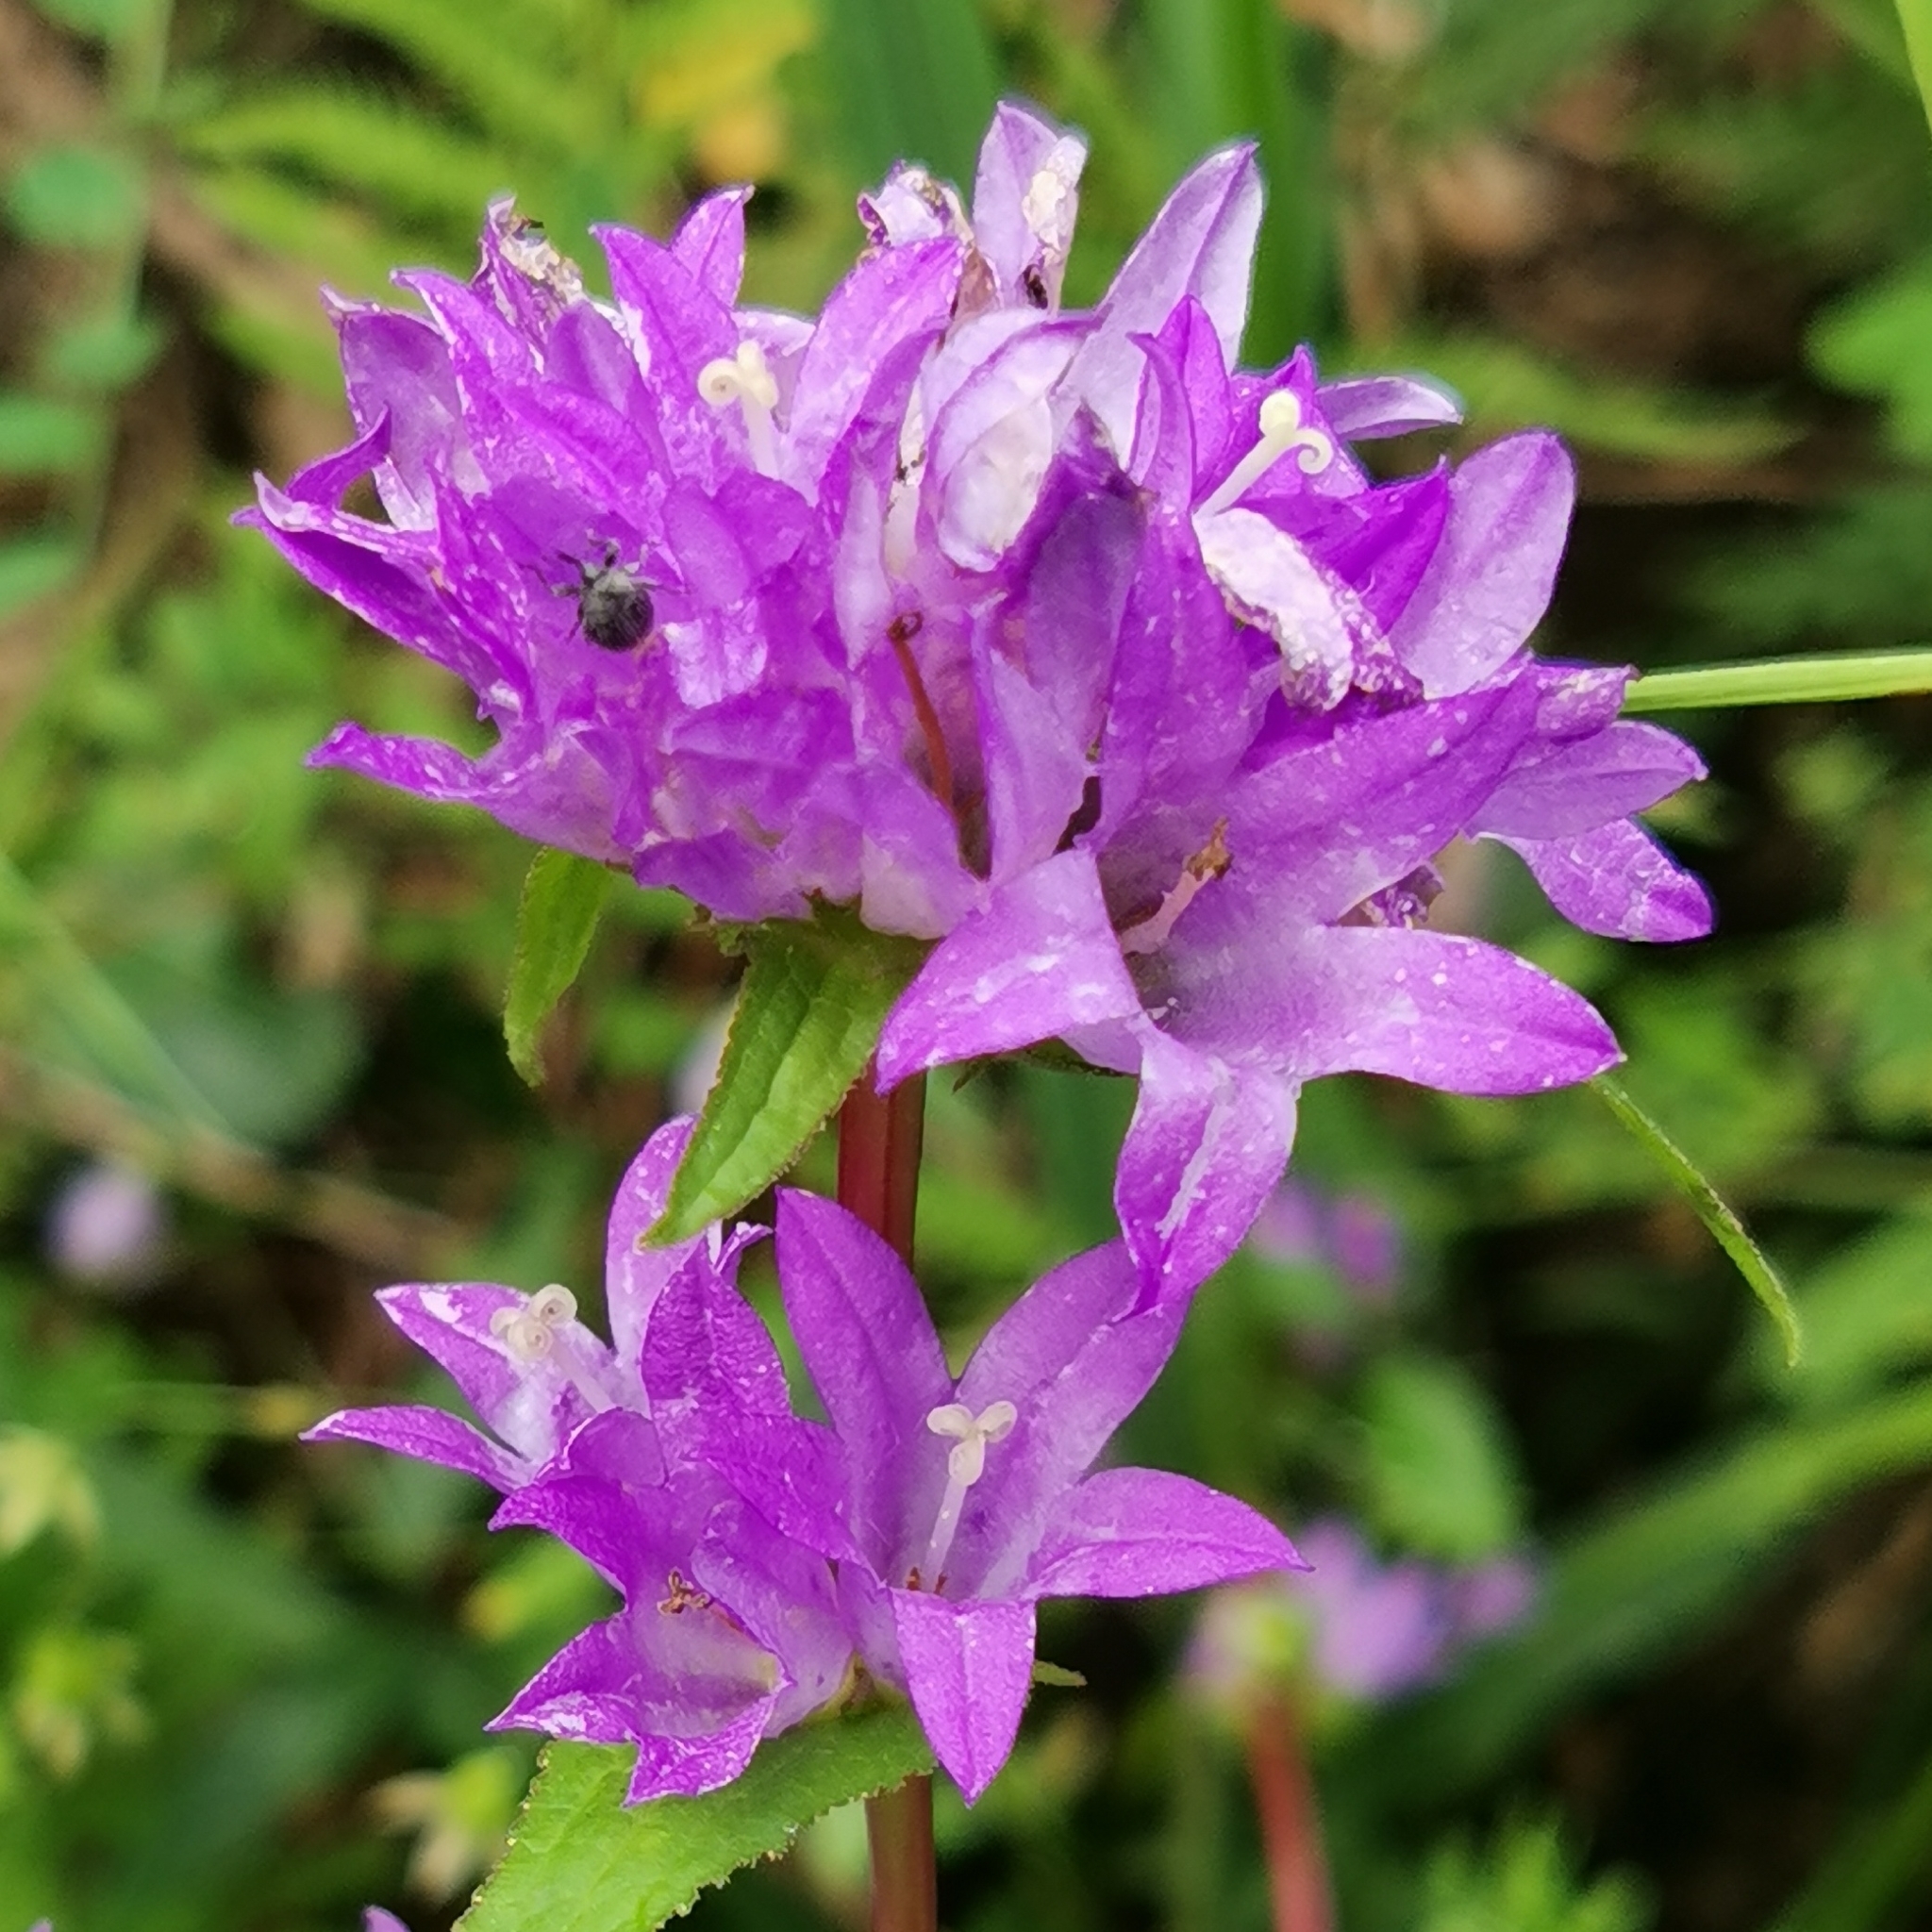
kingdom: Plantae
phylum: Tracheophyta
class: Magnoliopsida
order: Asterales
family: Campanulaceae
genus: Campanula
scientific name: Campanula glomerata
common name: Clustered bellflower
